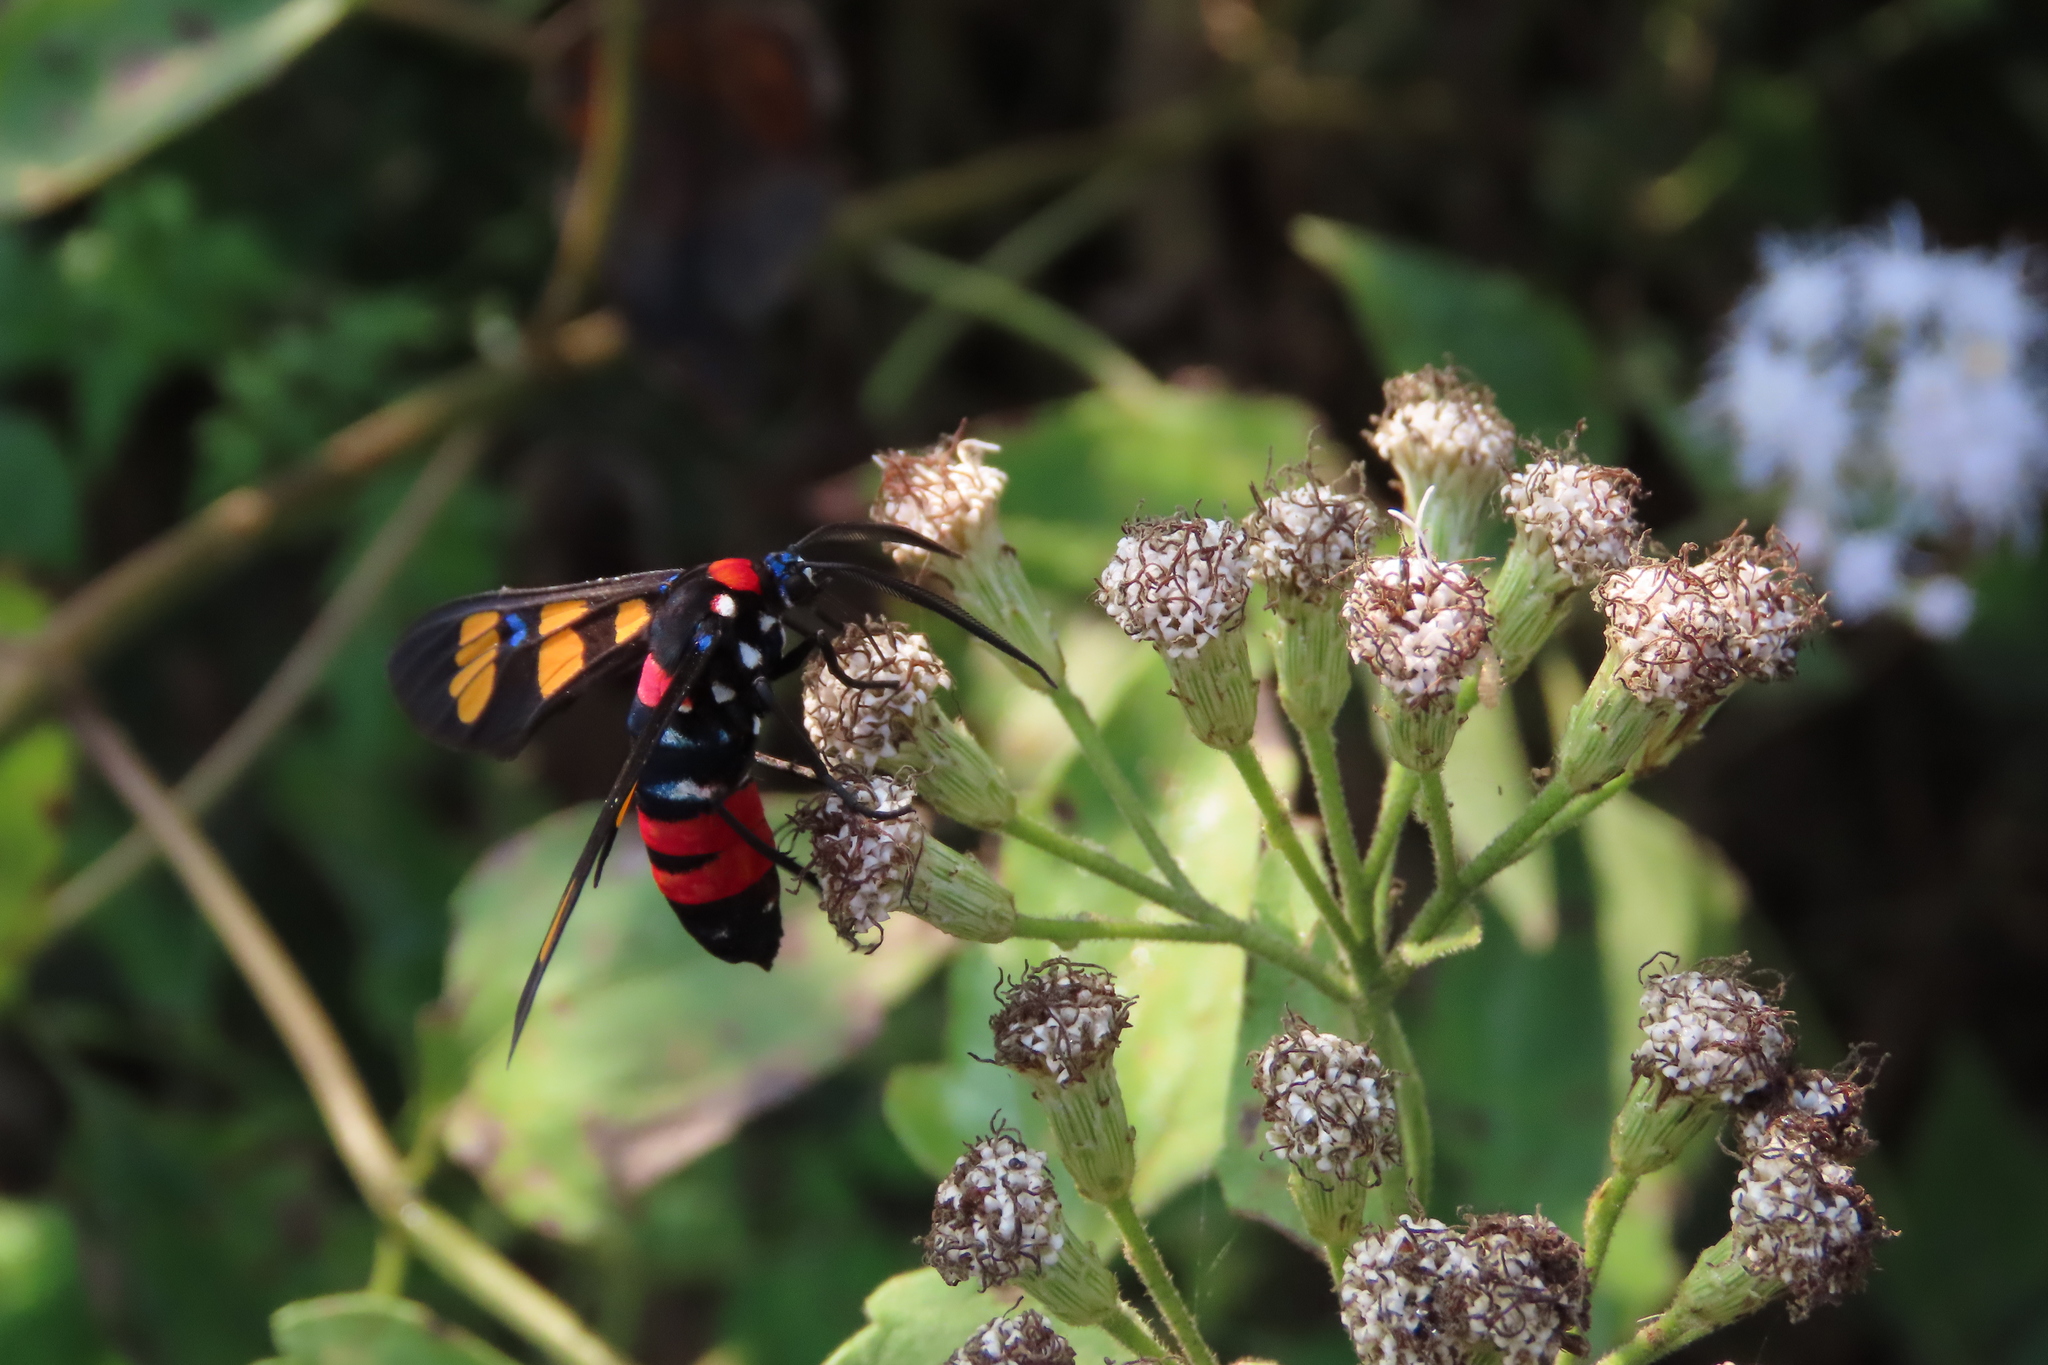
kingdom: Animalia
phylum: Arthropoda
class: Insecta
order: Lepidoptera
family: Erebidae
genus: Euchromia
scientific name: Euchromia polymena
